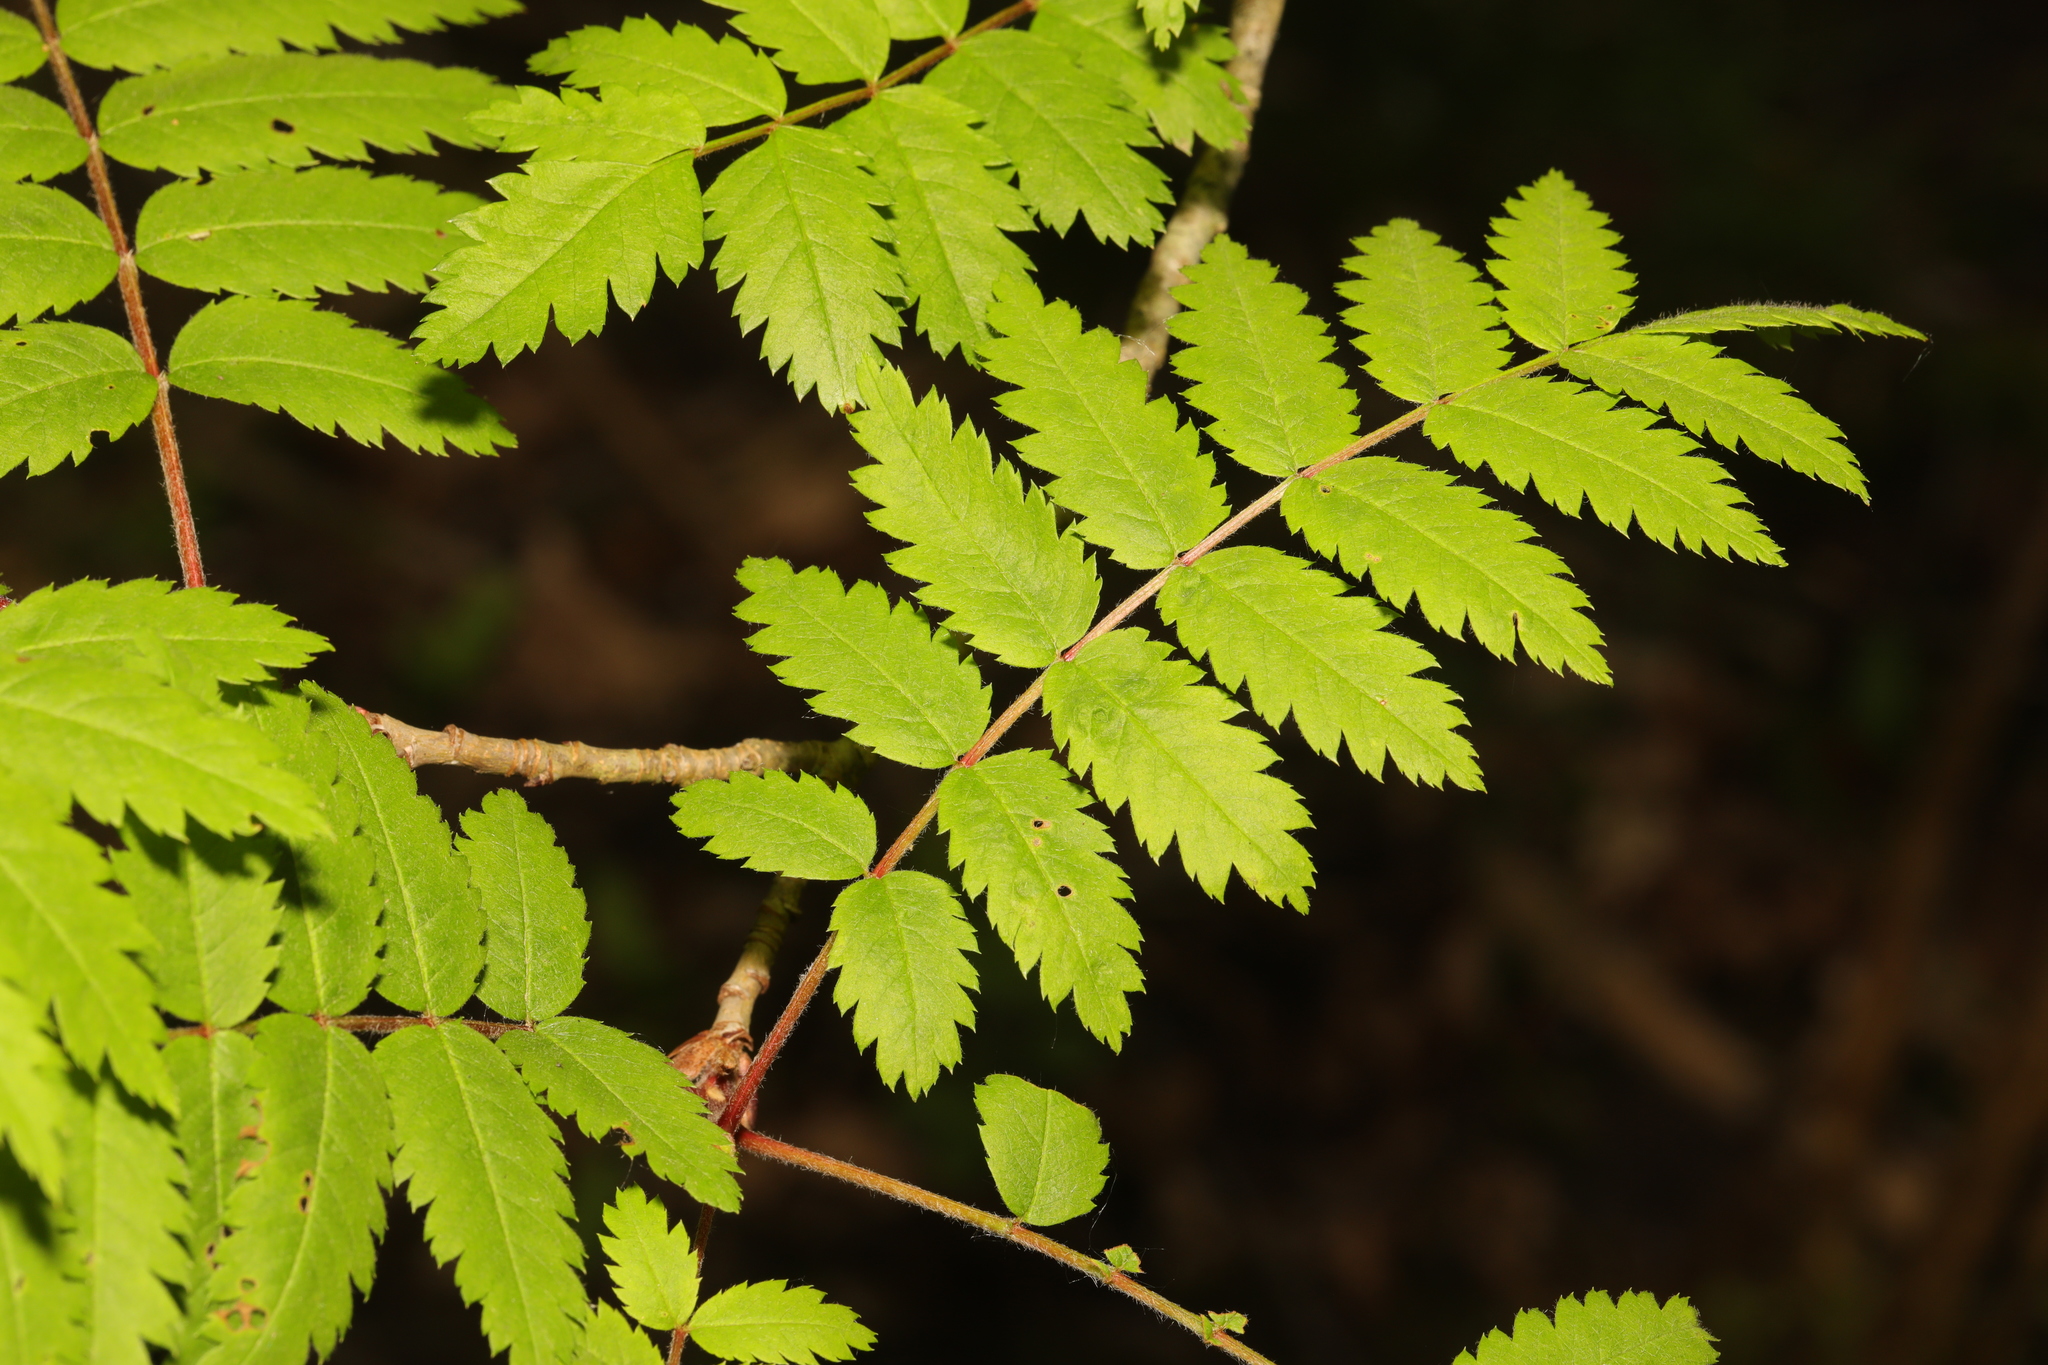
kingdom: Plantae
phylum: Tracheophyta
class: Magnoliopsida
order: Rosales
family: Rosaceae
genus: Sorbus
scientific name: Sorbus aucuparia
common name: Rowan
